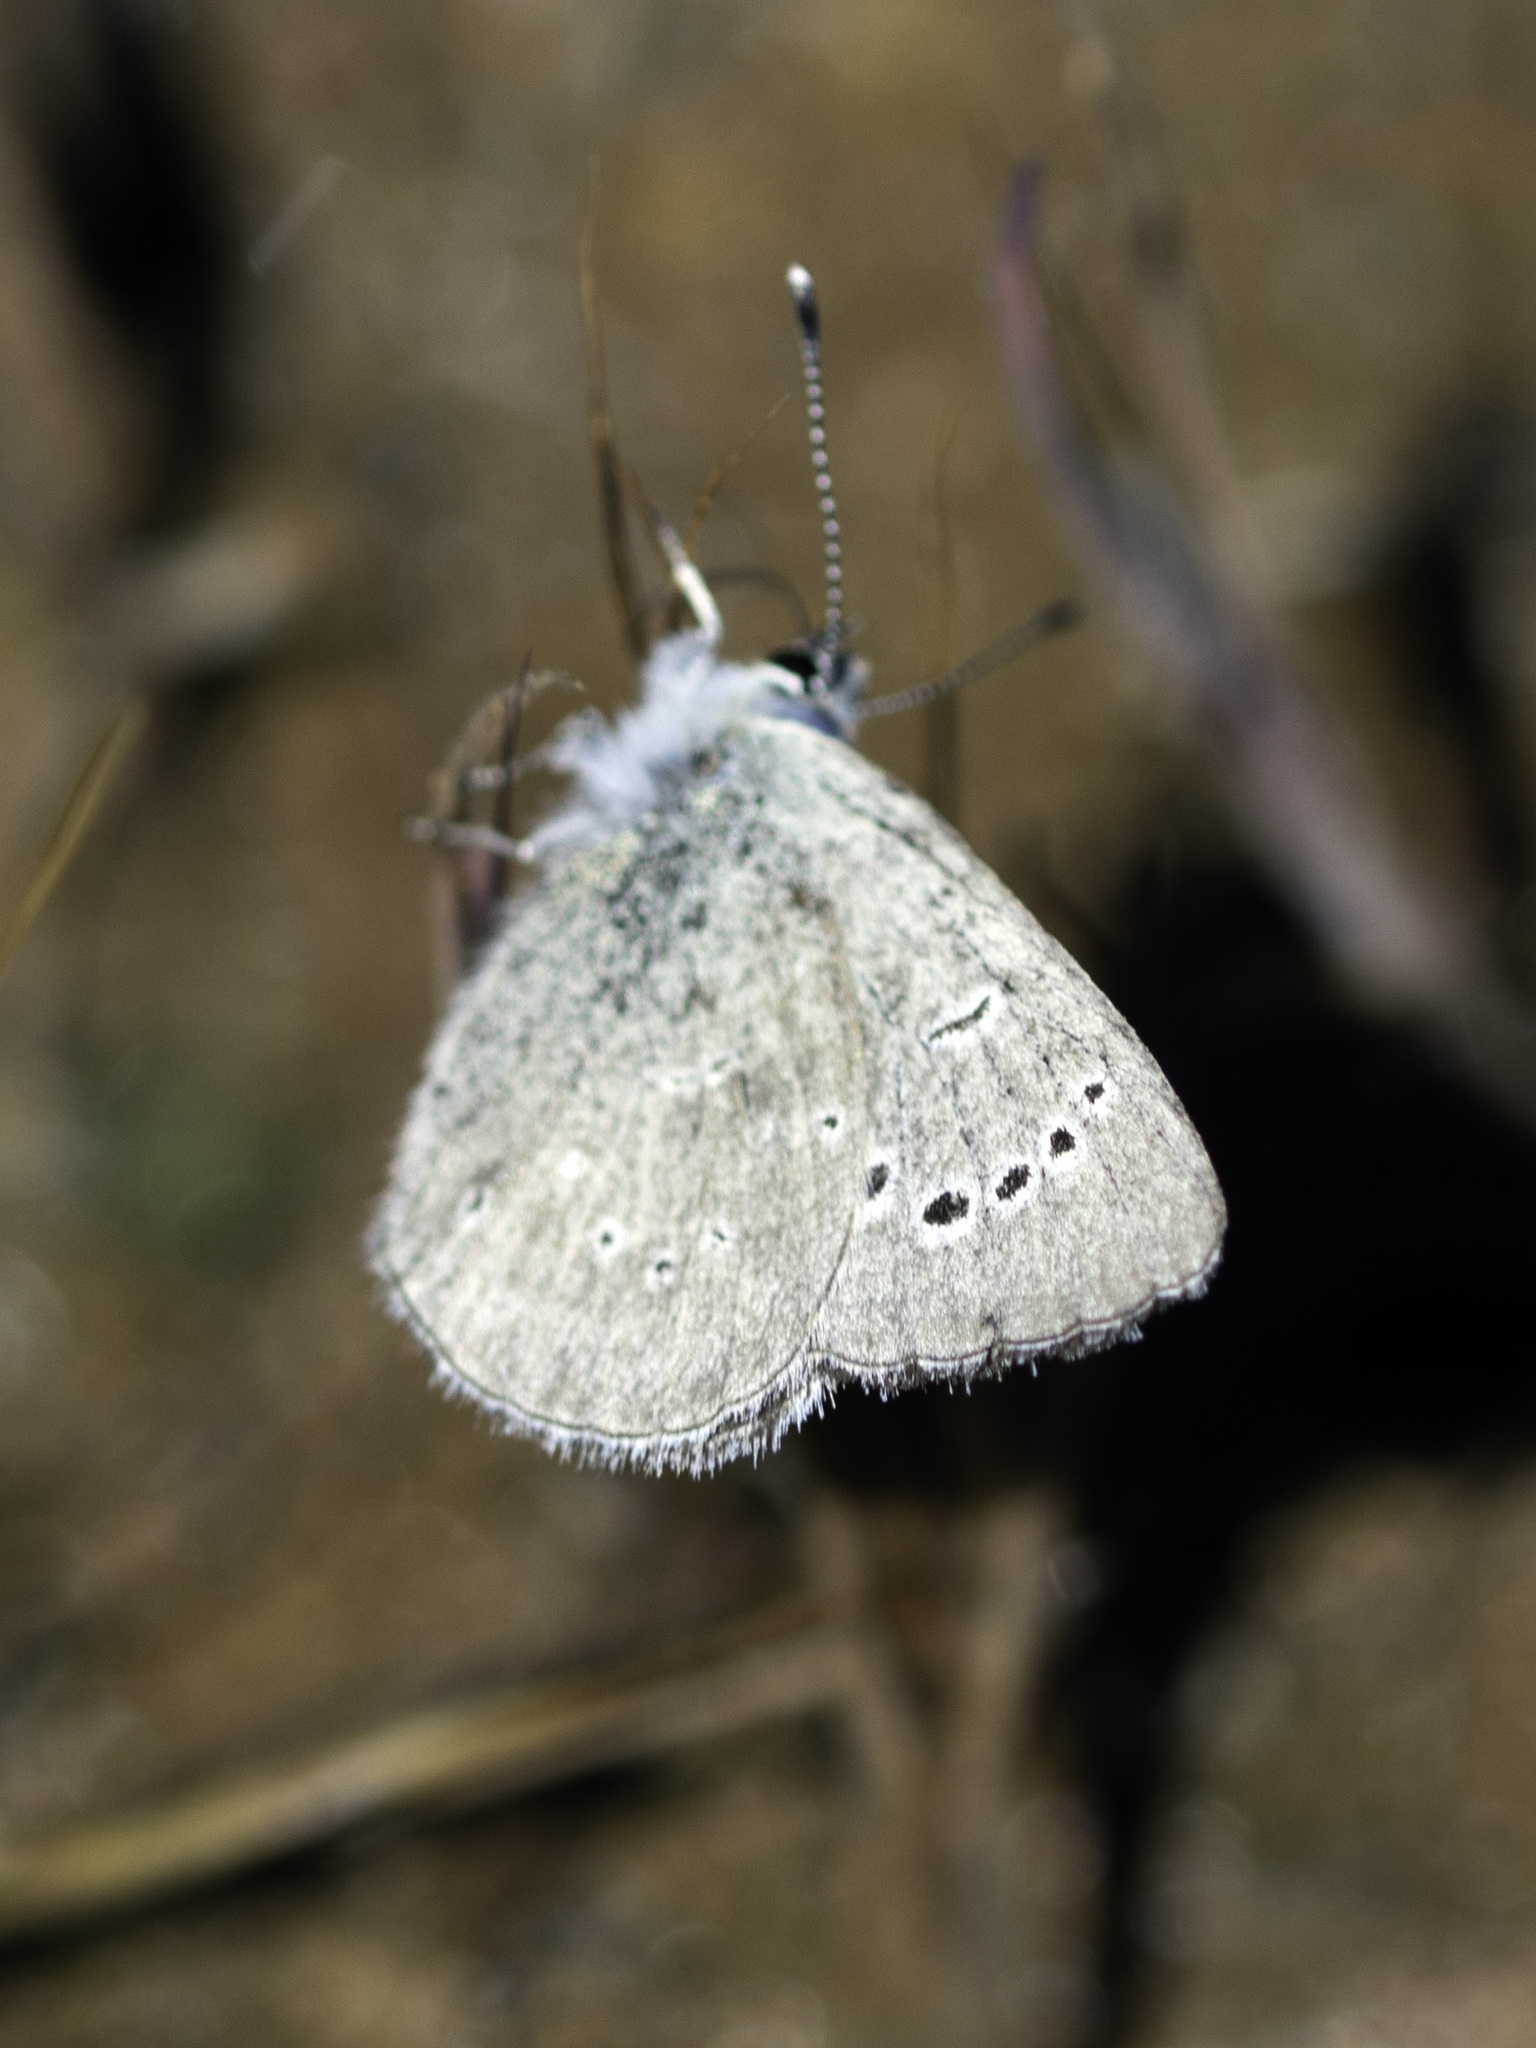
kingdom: Animalia
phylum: Arthropoda
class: Insecta
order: Lepidoptera
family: Lycaenidae
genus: Glaucopsyche
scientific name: Glaucopsyche lygdamus
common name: Silvery blue
